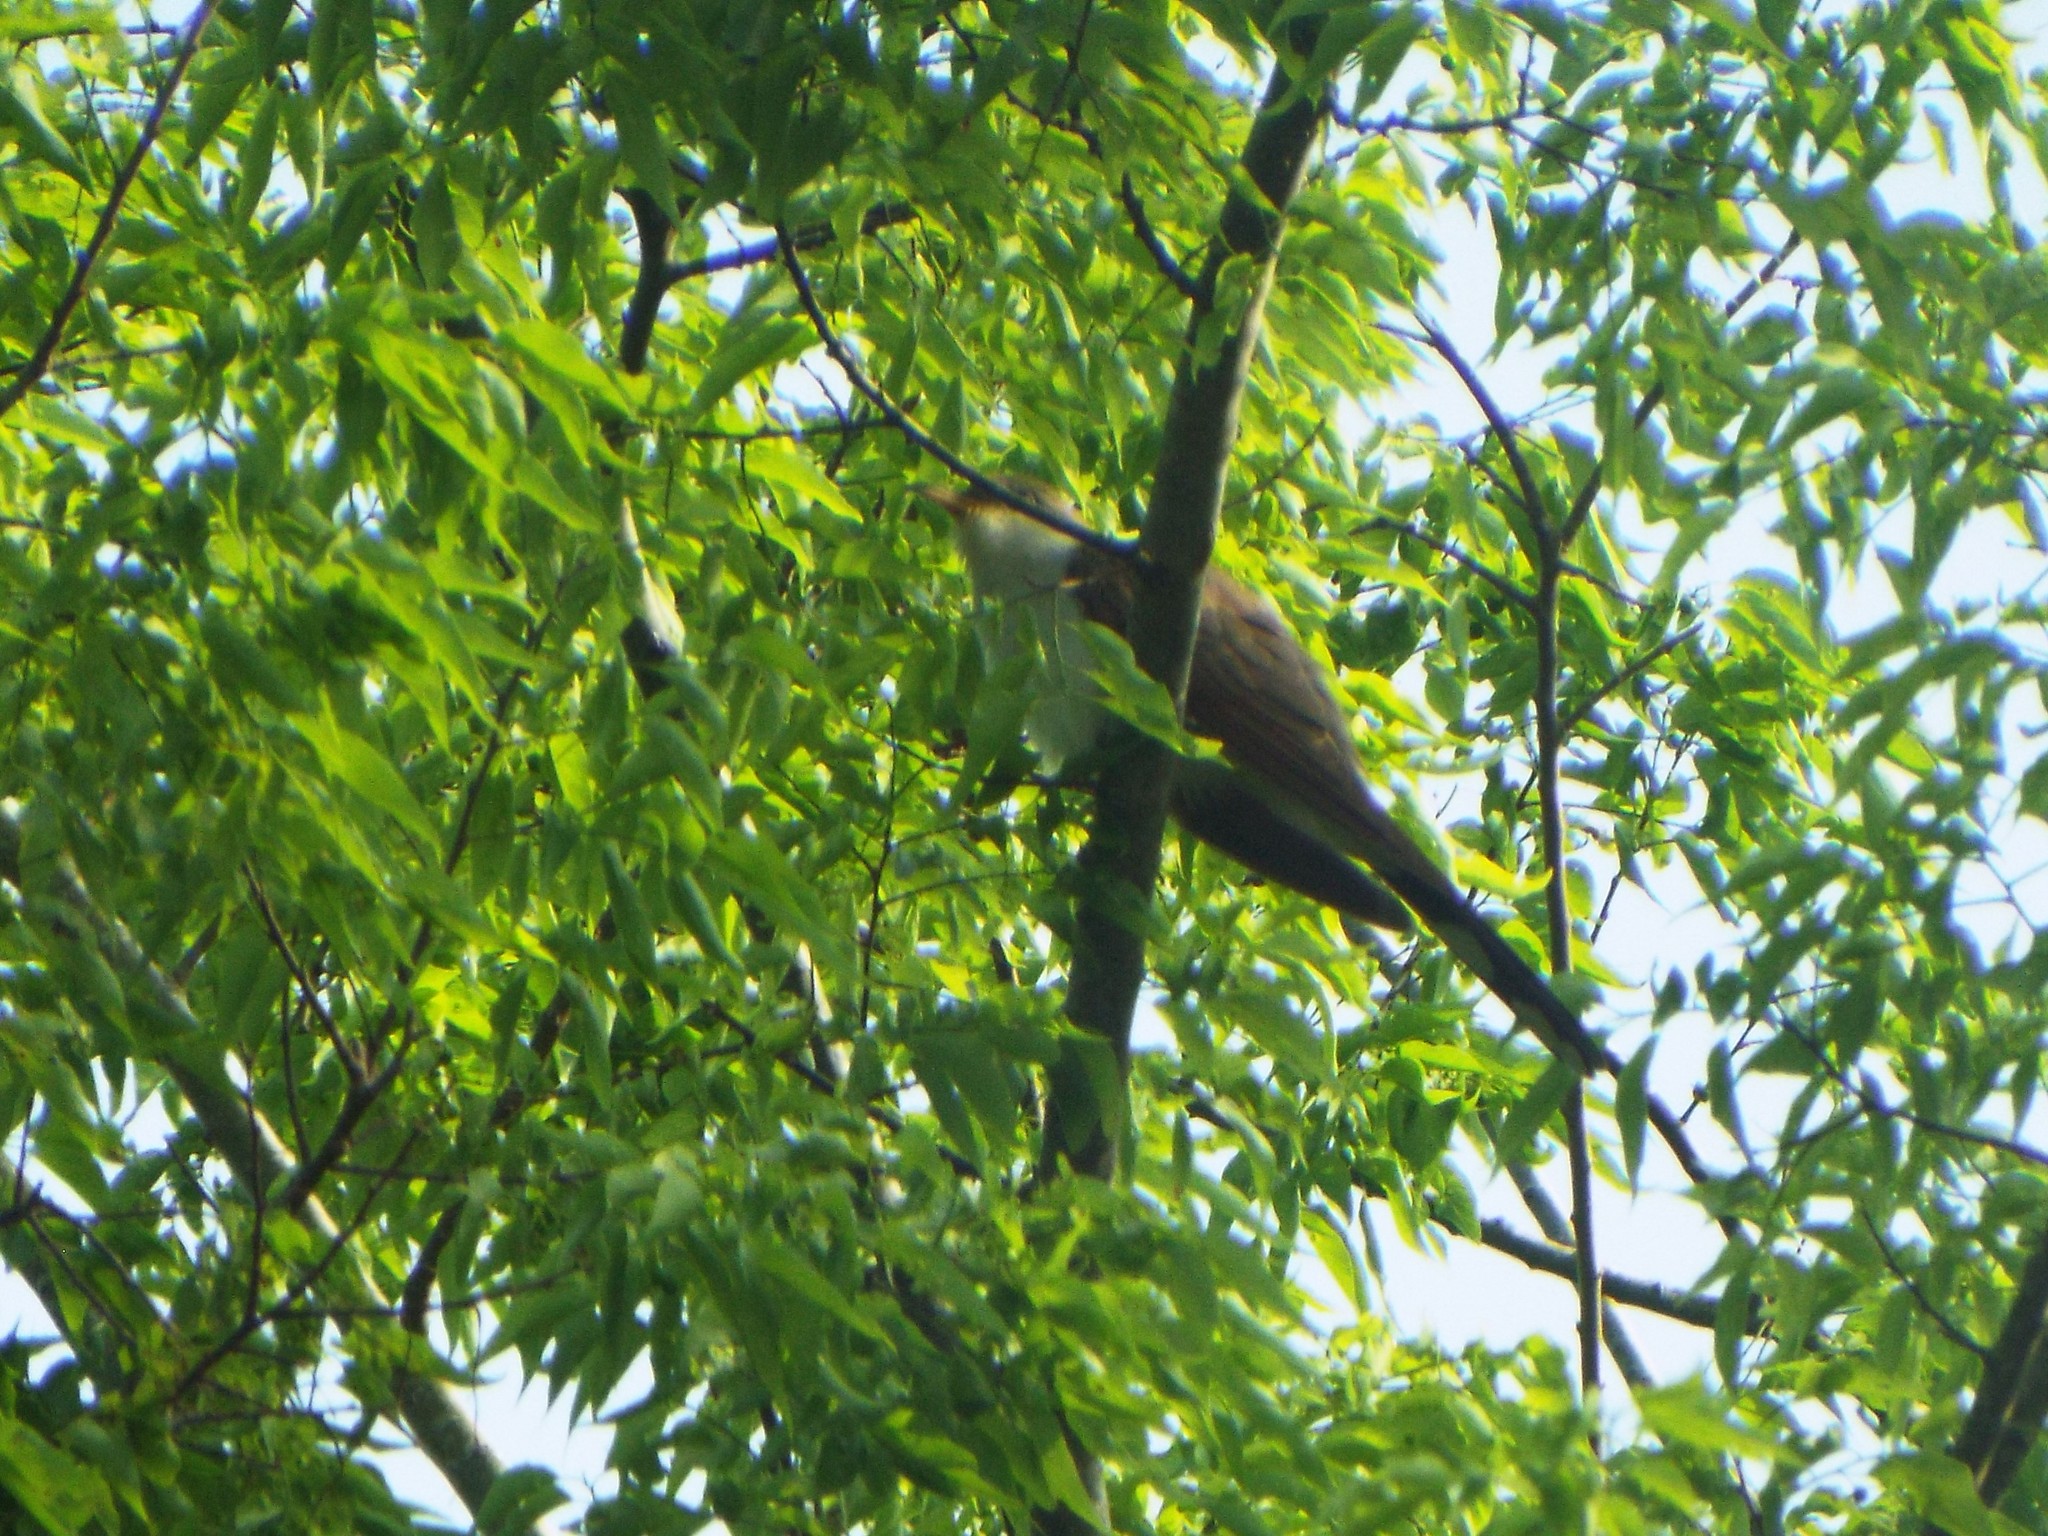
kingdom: Animalia
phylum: Chordata
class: Aves
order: Cuculiformes
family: Cuculidae
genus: Coccyzus
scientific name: Coccyzus americanus
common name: Yellow-billed cuckoo
